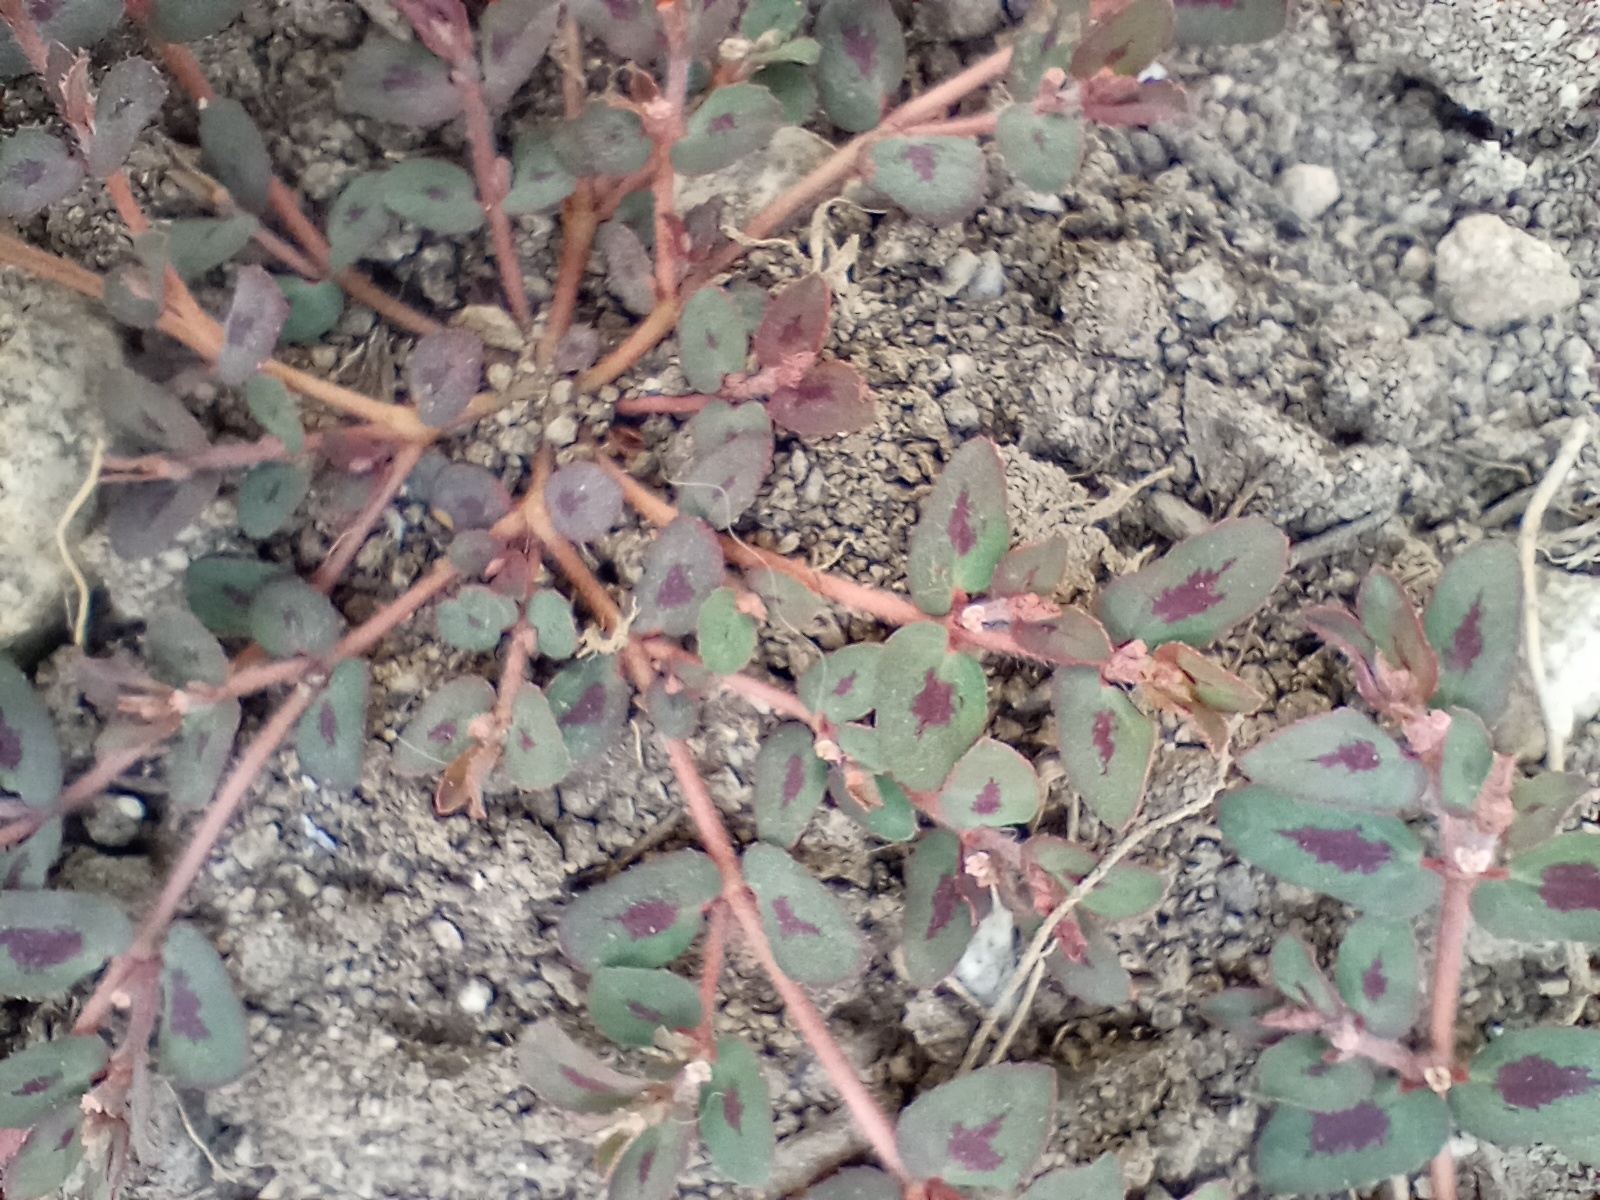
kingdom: Plantae
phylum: Tracheophyta
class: Magnoliopsida
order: Malpighiales
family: Euphorbiaceae
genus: Euphorbia
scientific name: Euphorbia maculata
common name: Spotted spurge
